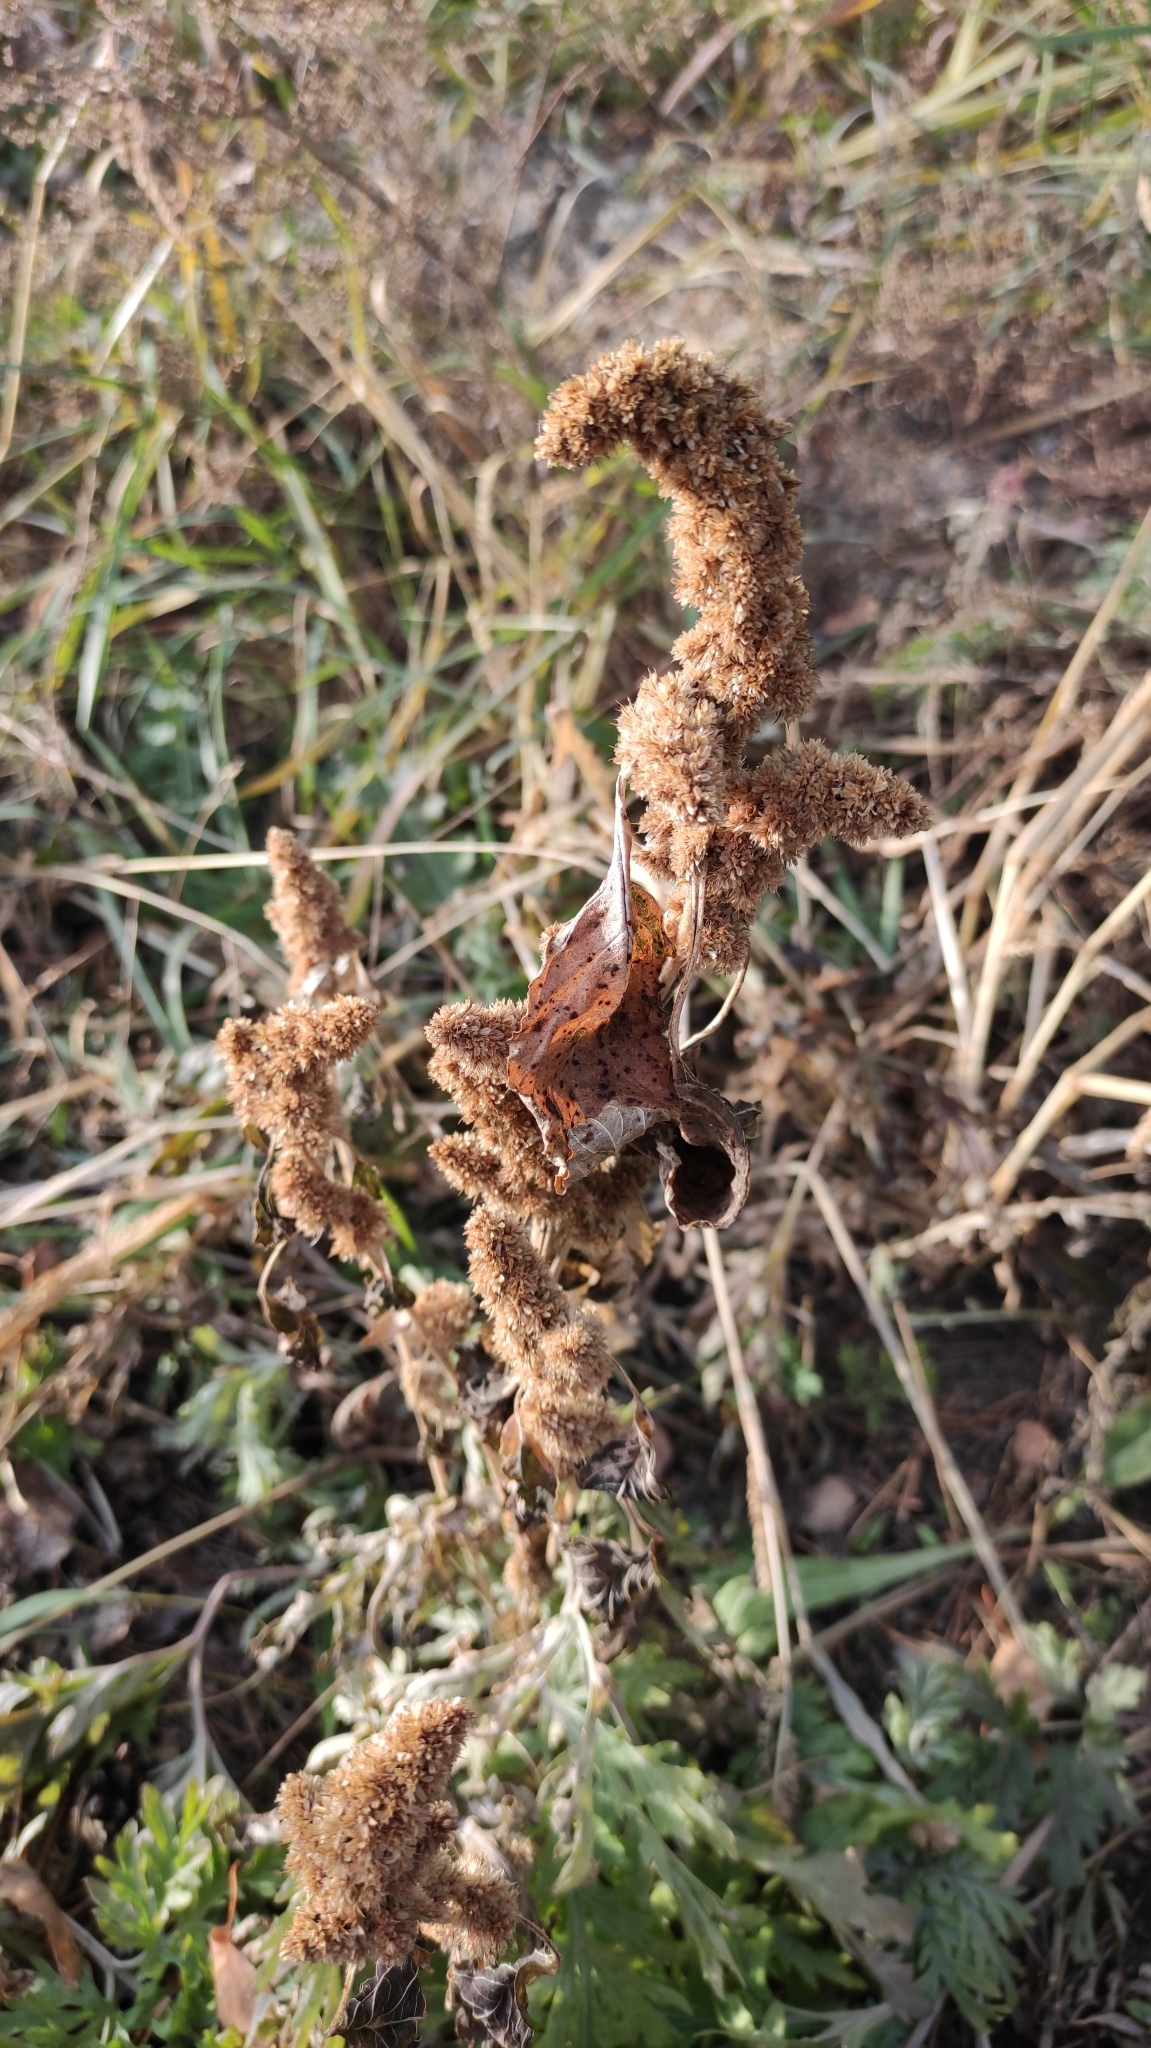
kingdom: Plantae
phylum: Tracheophyta
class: Magnoliopsida
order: Caryophyllales
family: Amaranthaceae
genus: Amaranthus
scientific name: Amaranthus retroflexus
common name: Redroot amaranth
